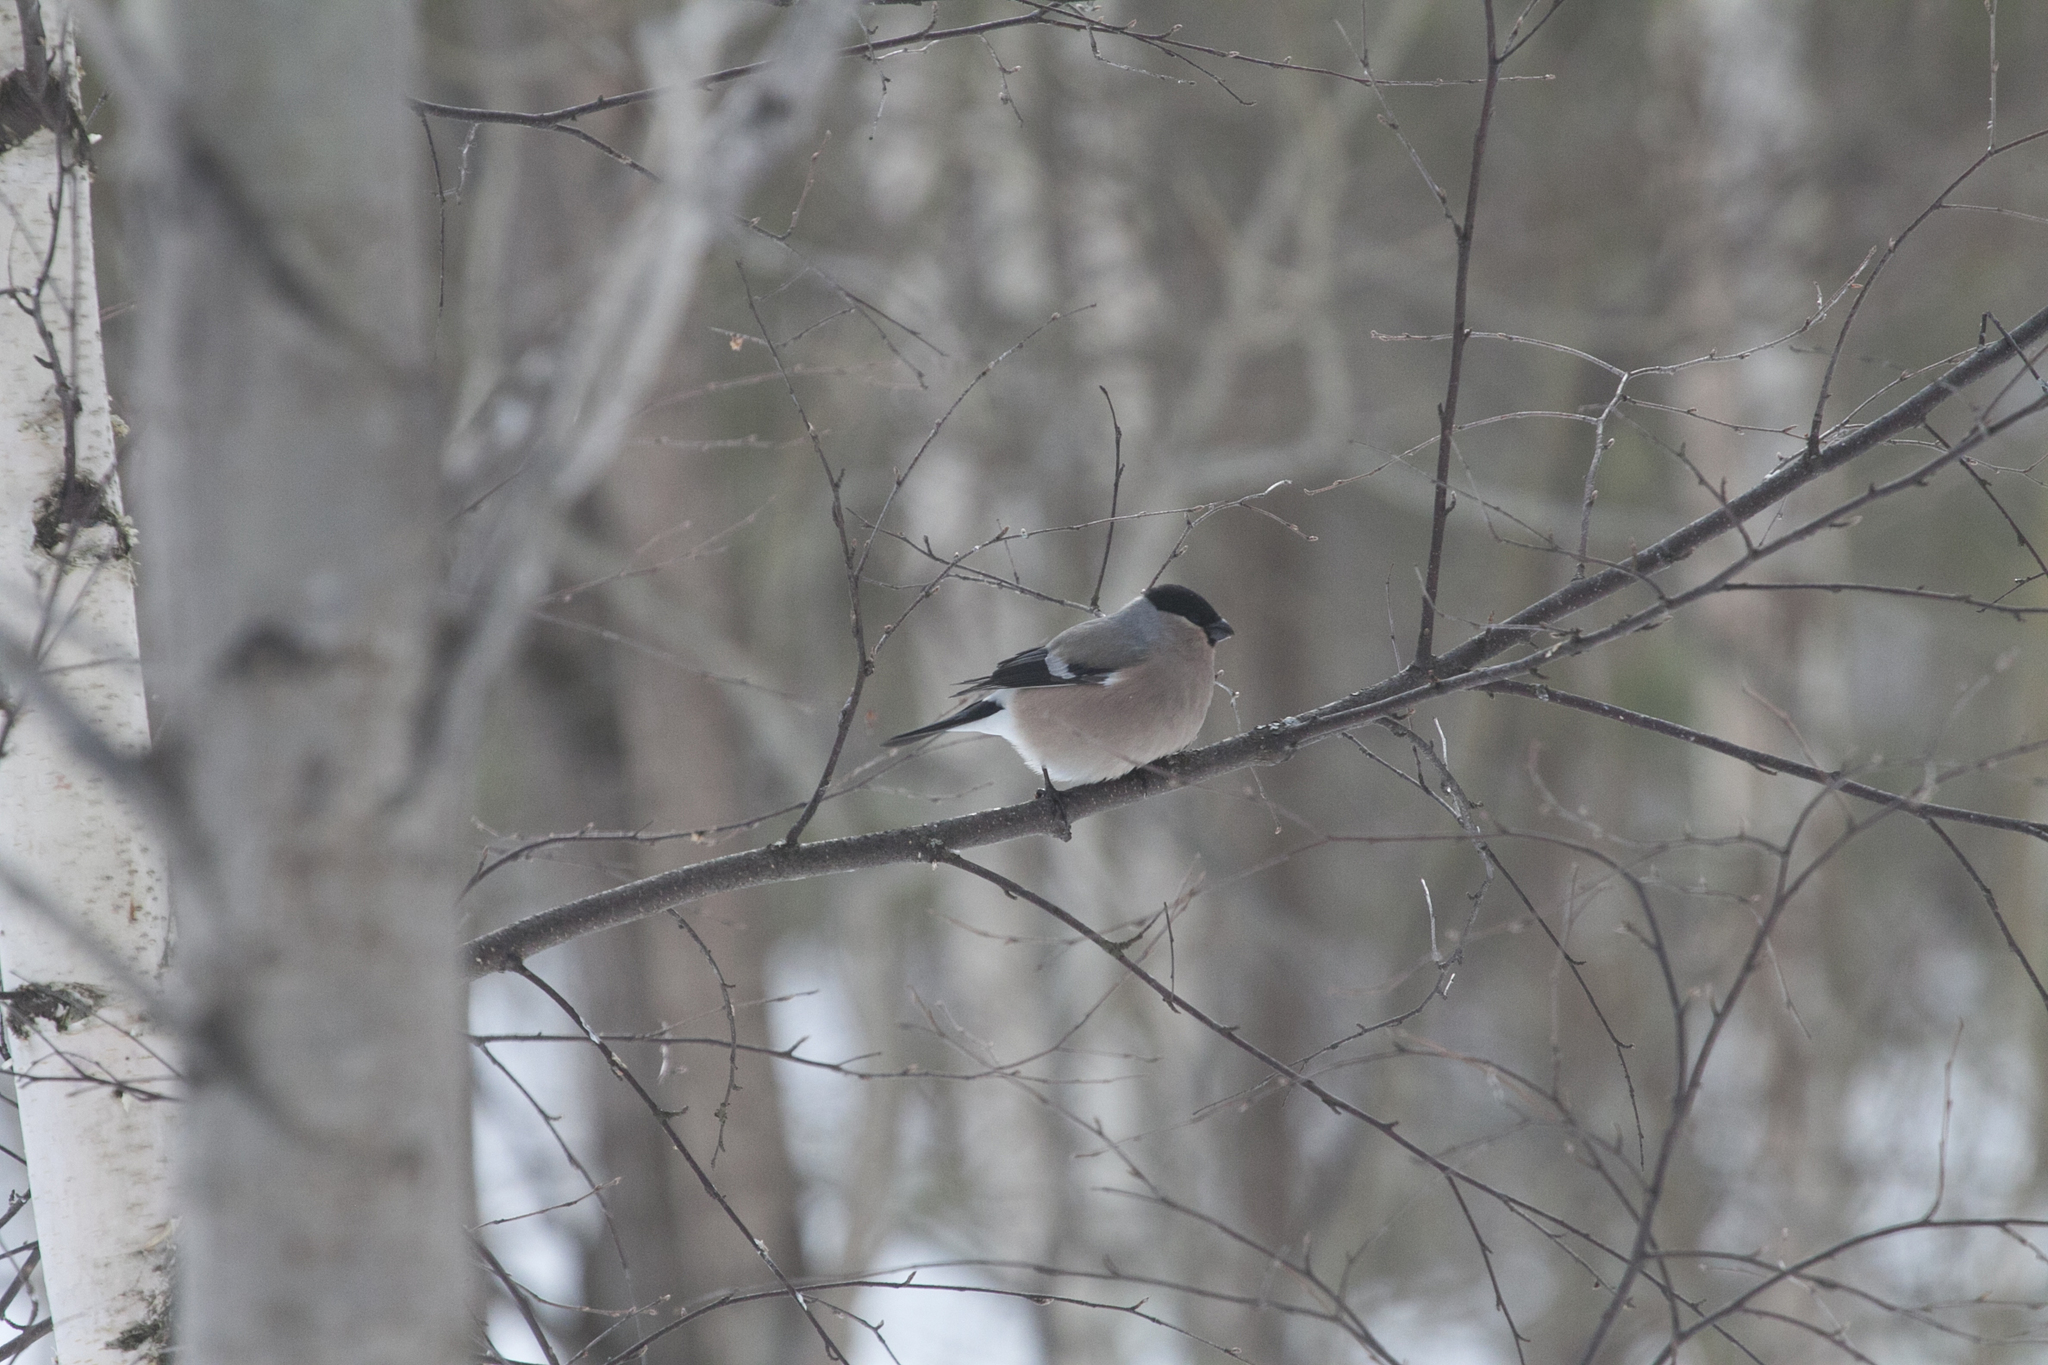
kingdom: Animalia
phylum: Chordata
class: Aves
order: Passeriformes
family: Fringillidae
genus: Pyrrhula
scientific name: Pyrrhula pyrrhula
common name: Eurasian bullfinch
